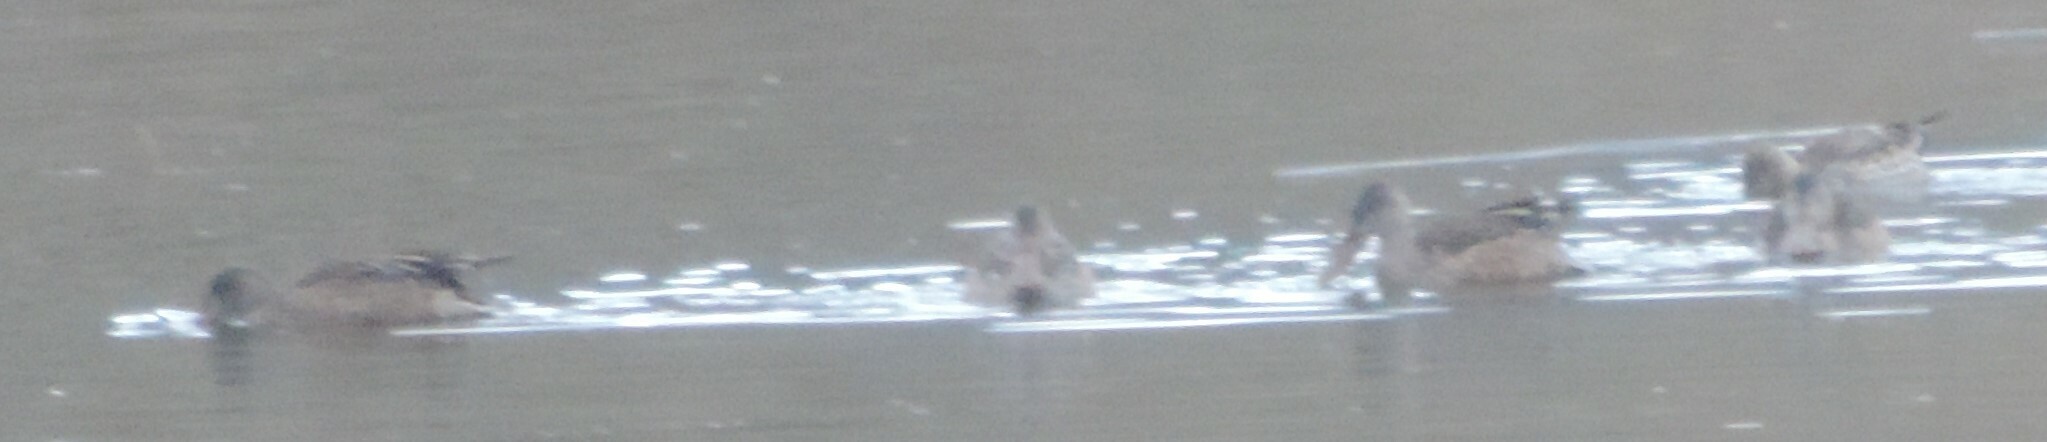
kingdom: Animalia
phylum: Chordata
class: Aves
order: Anseriformes
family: Anatidae
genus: Spatula
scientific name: Spatula clypeata
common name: Northern shoveler
